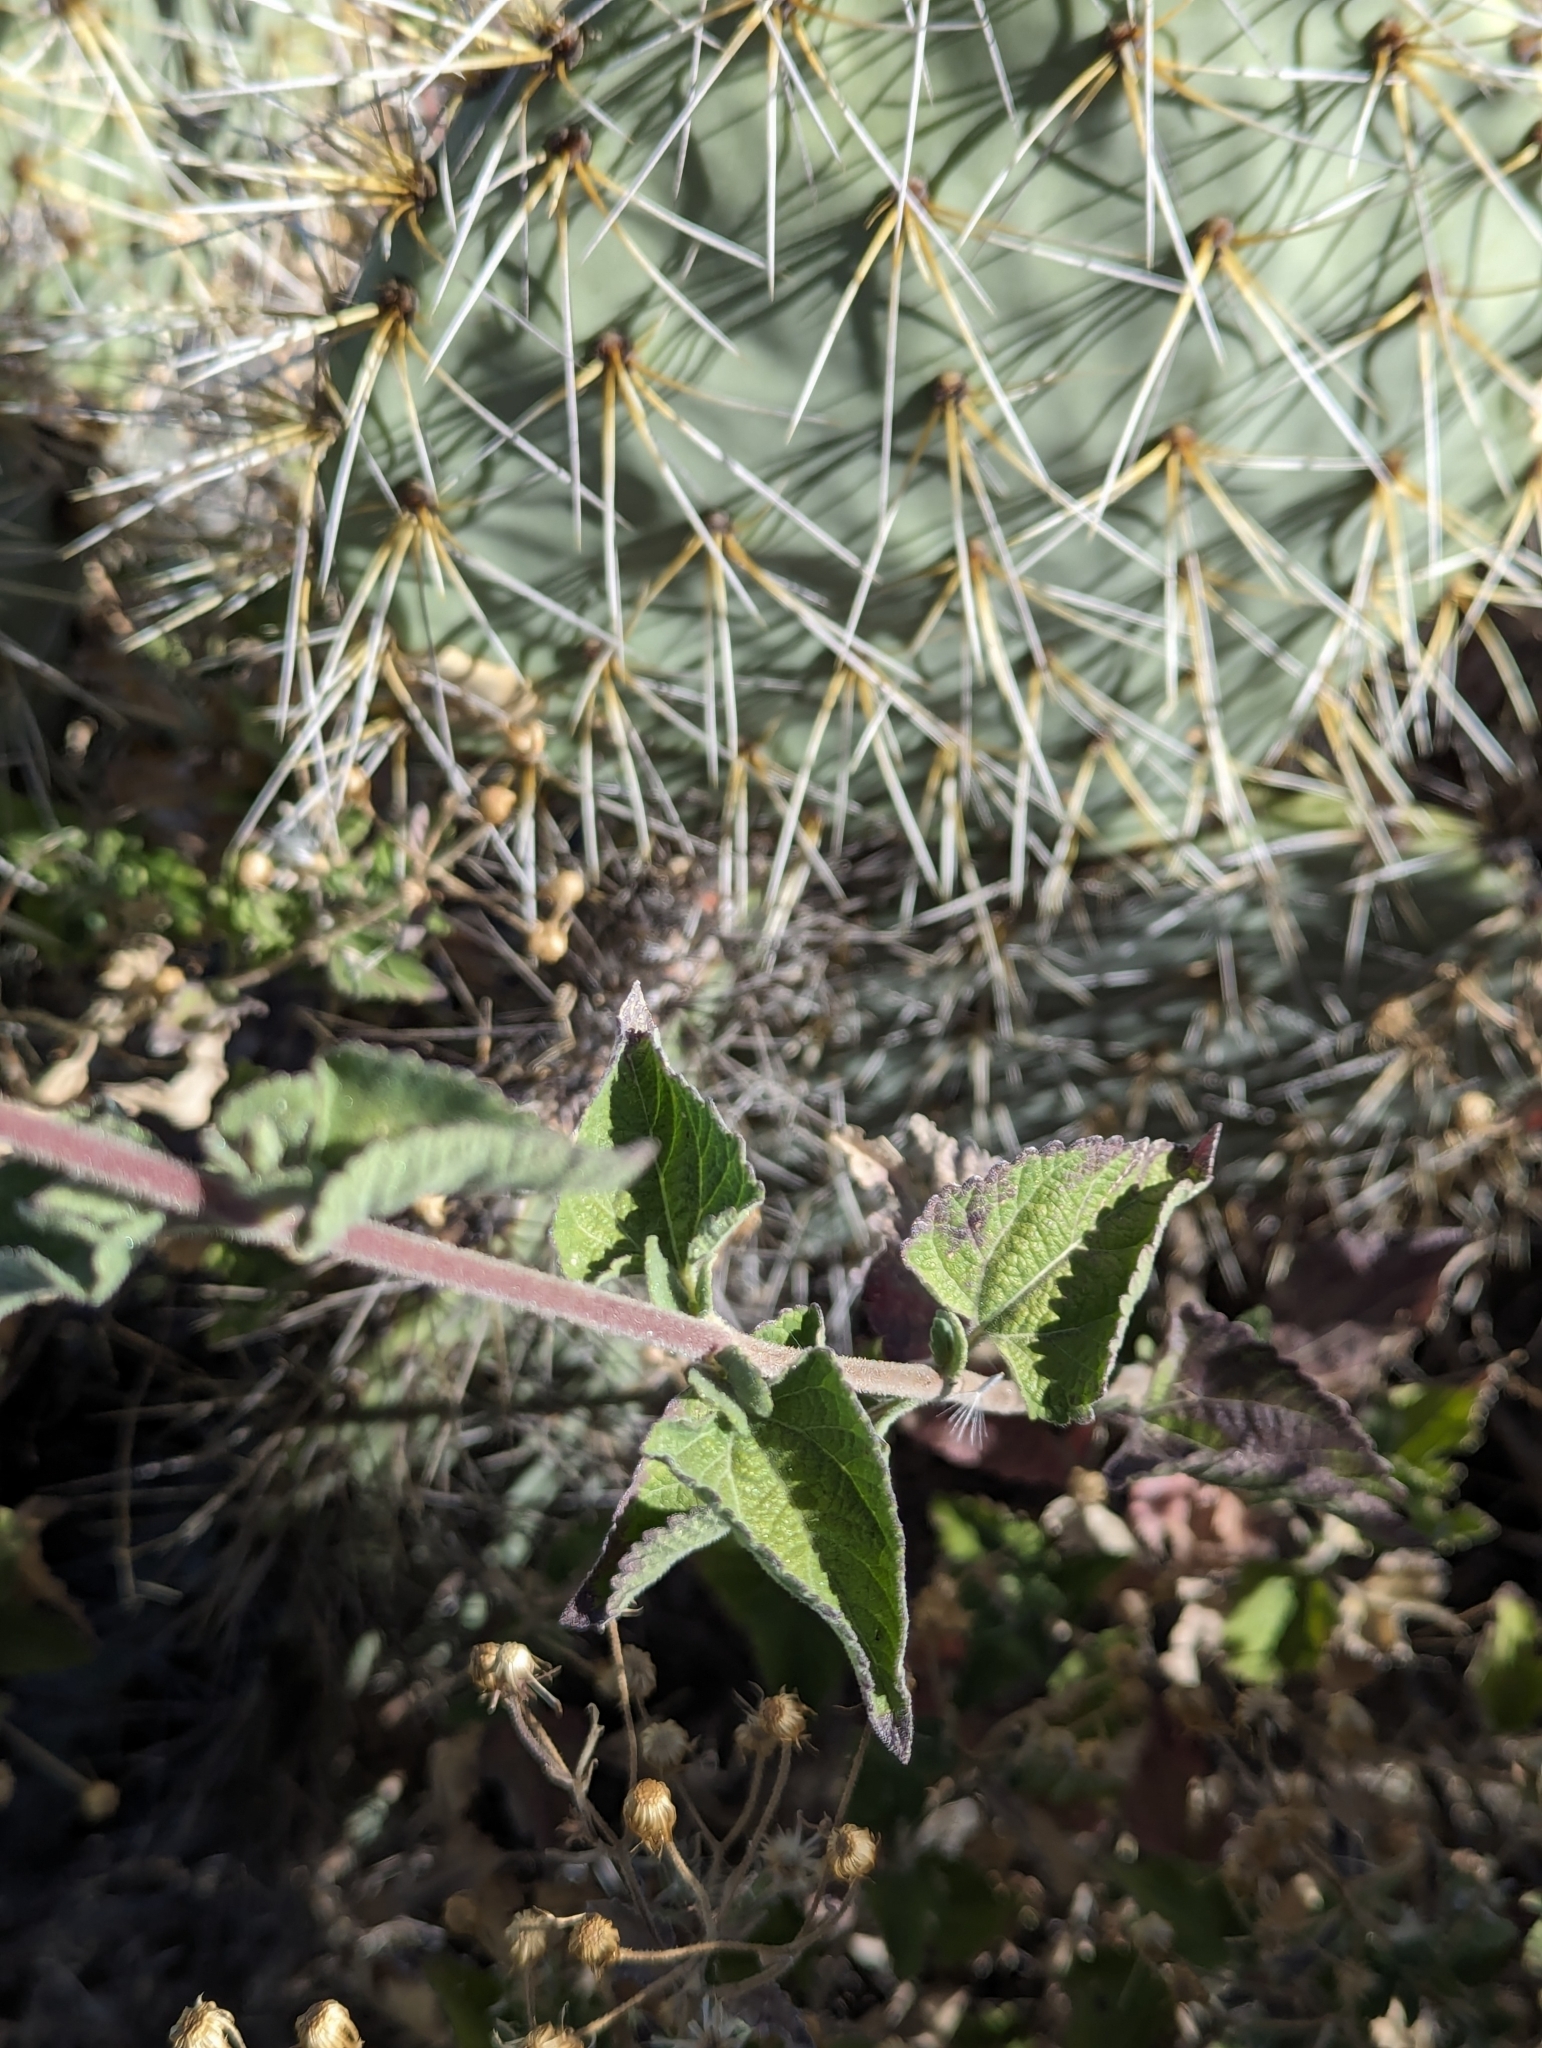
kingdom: Plantae
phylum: Tracheophyta
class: Magnoliopsida
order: Asterales
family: Asteraceae
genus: Brickellia
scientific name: Brickellia peninsularis
